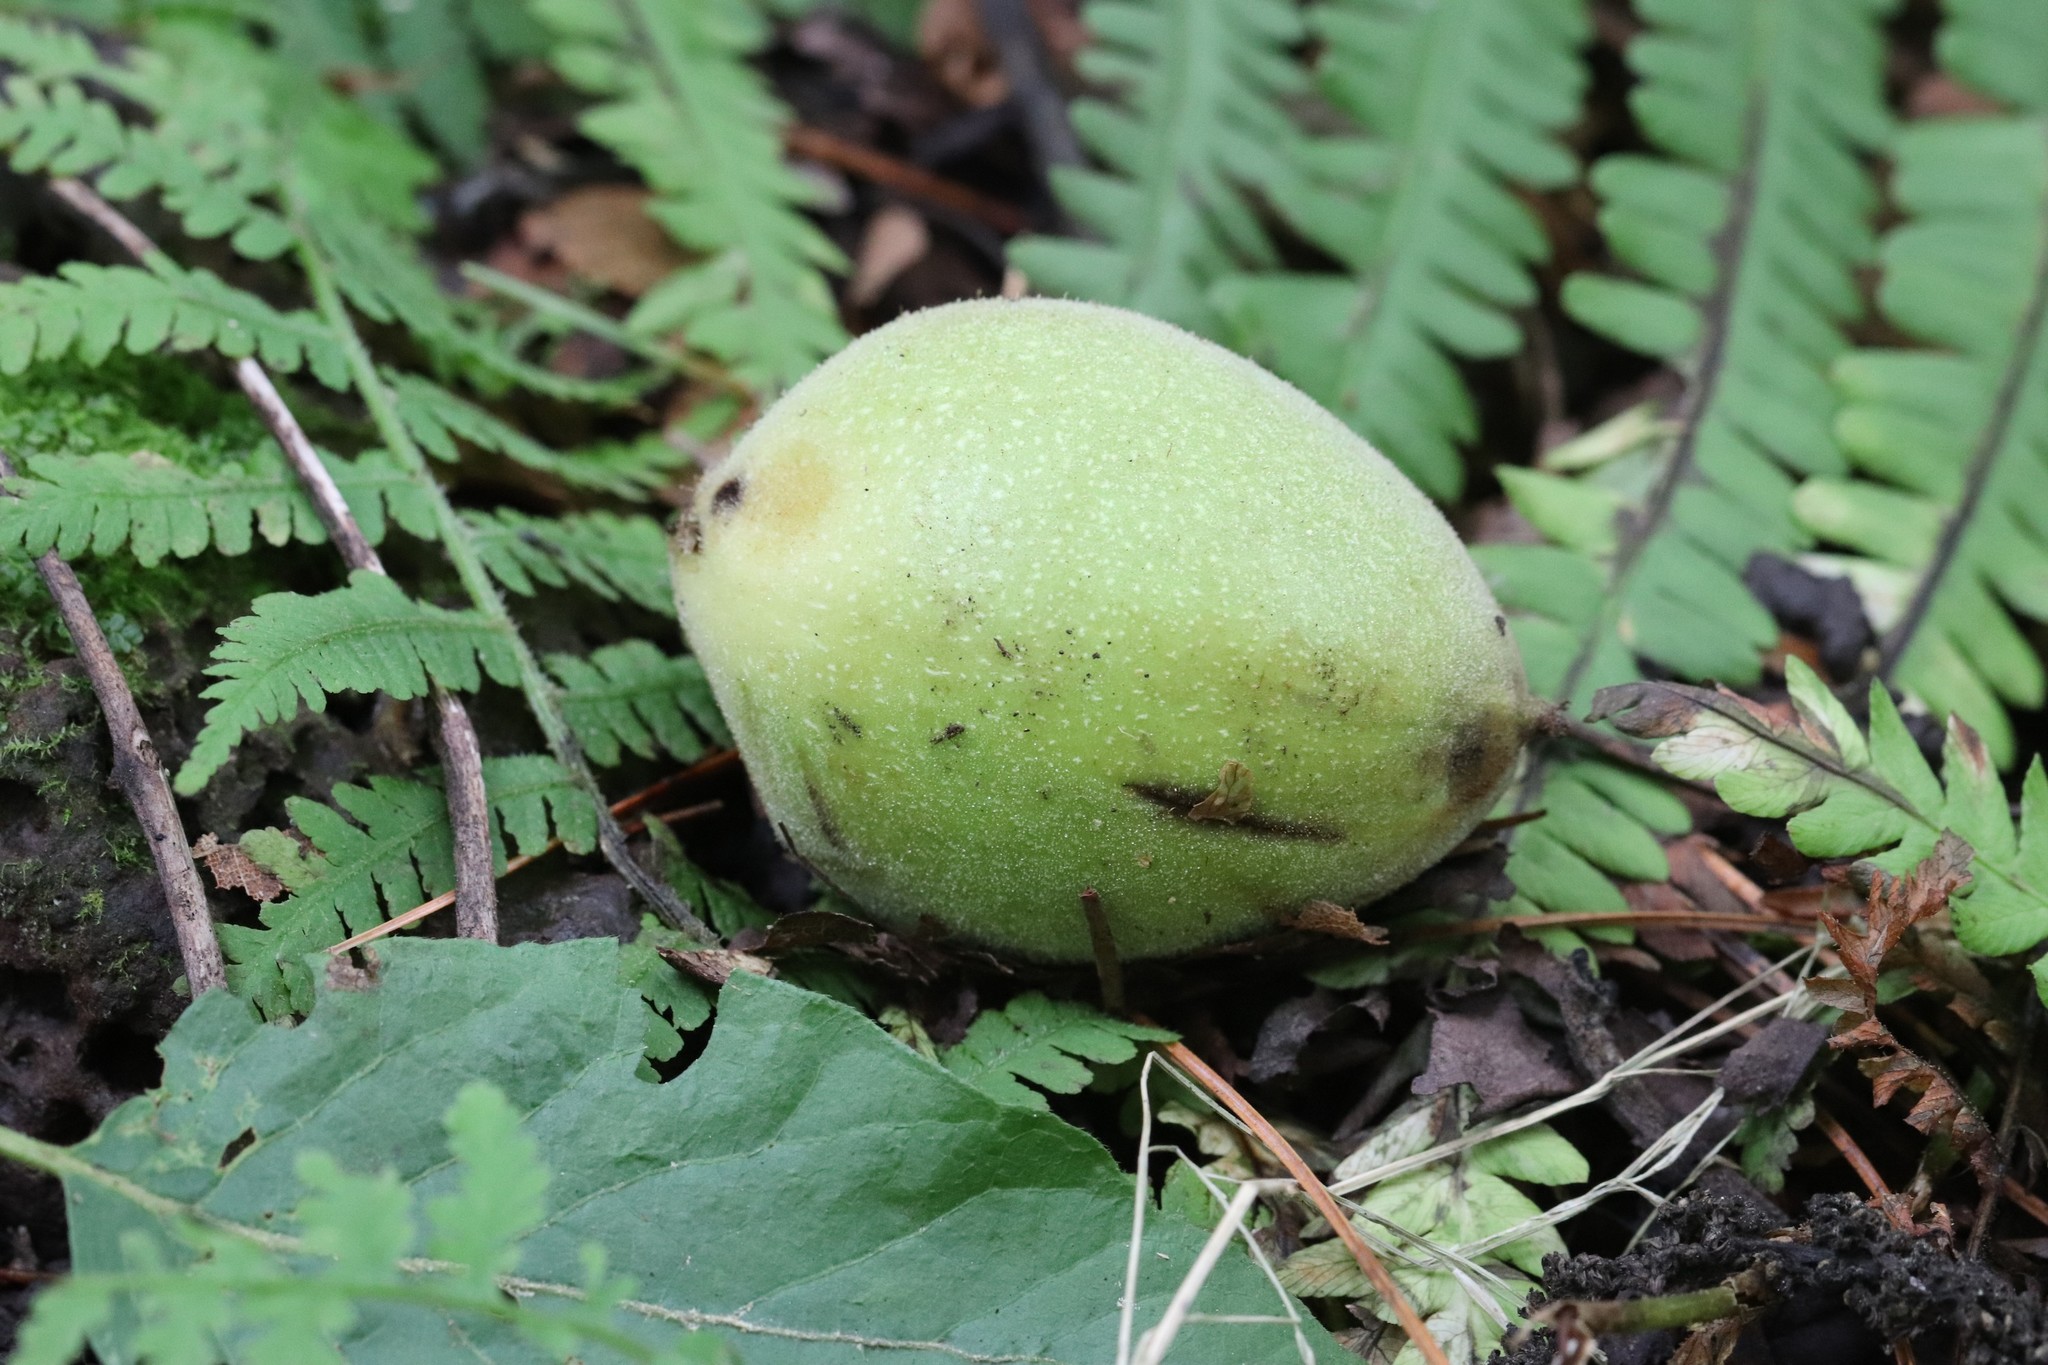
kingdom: Plantae
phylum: Tracheophyta
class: Magnoliopsida
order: Fagales
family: Juglandaceae
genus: Juglans
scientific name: Juglans mandshurica
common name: Manchurian walnut
